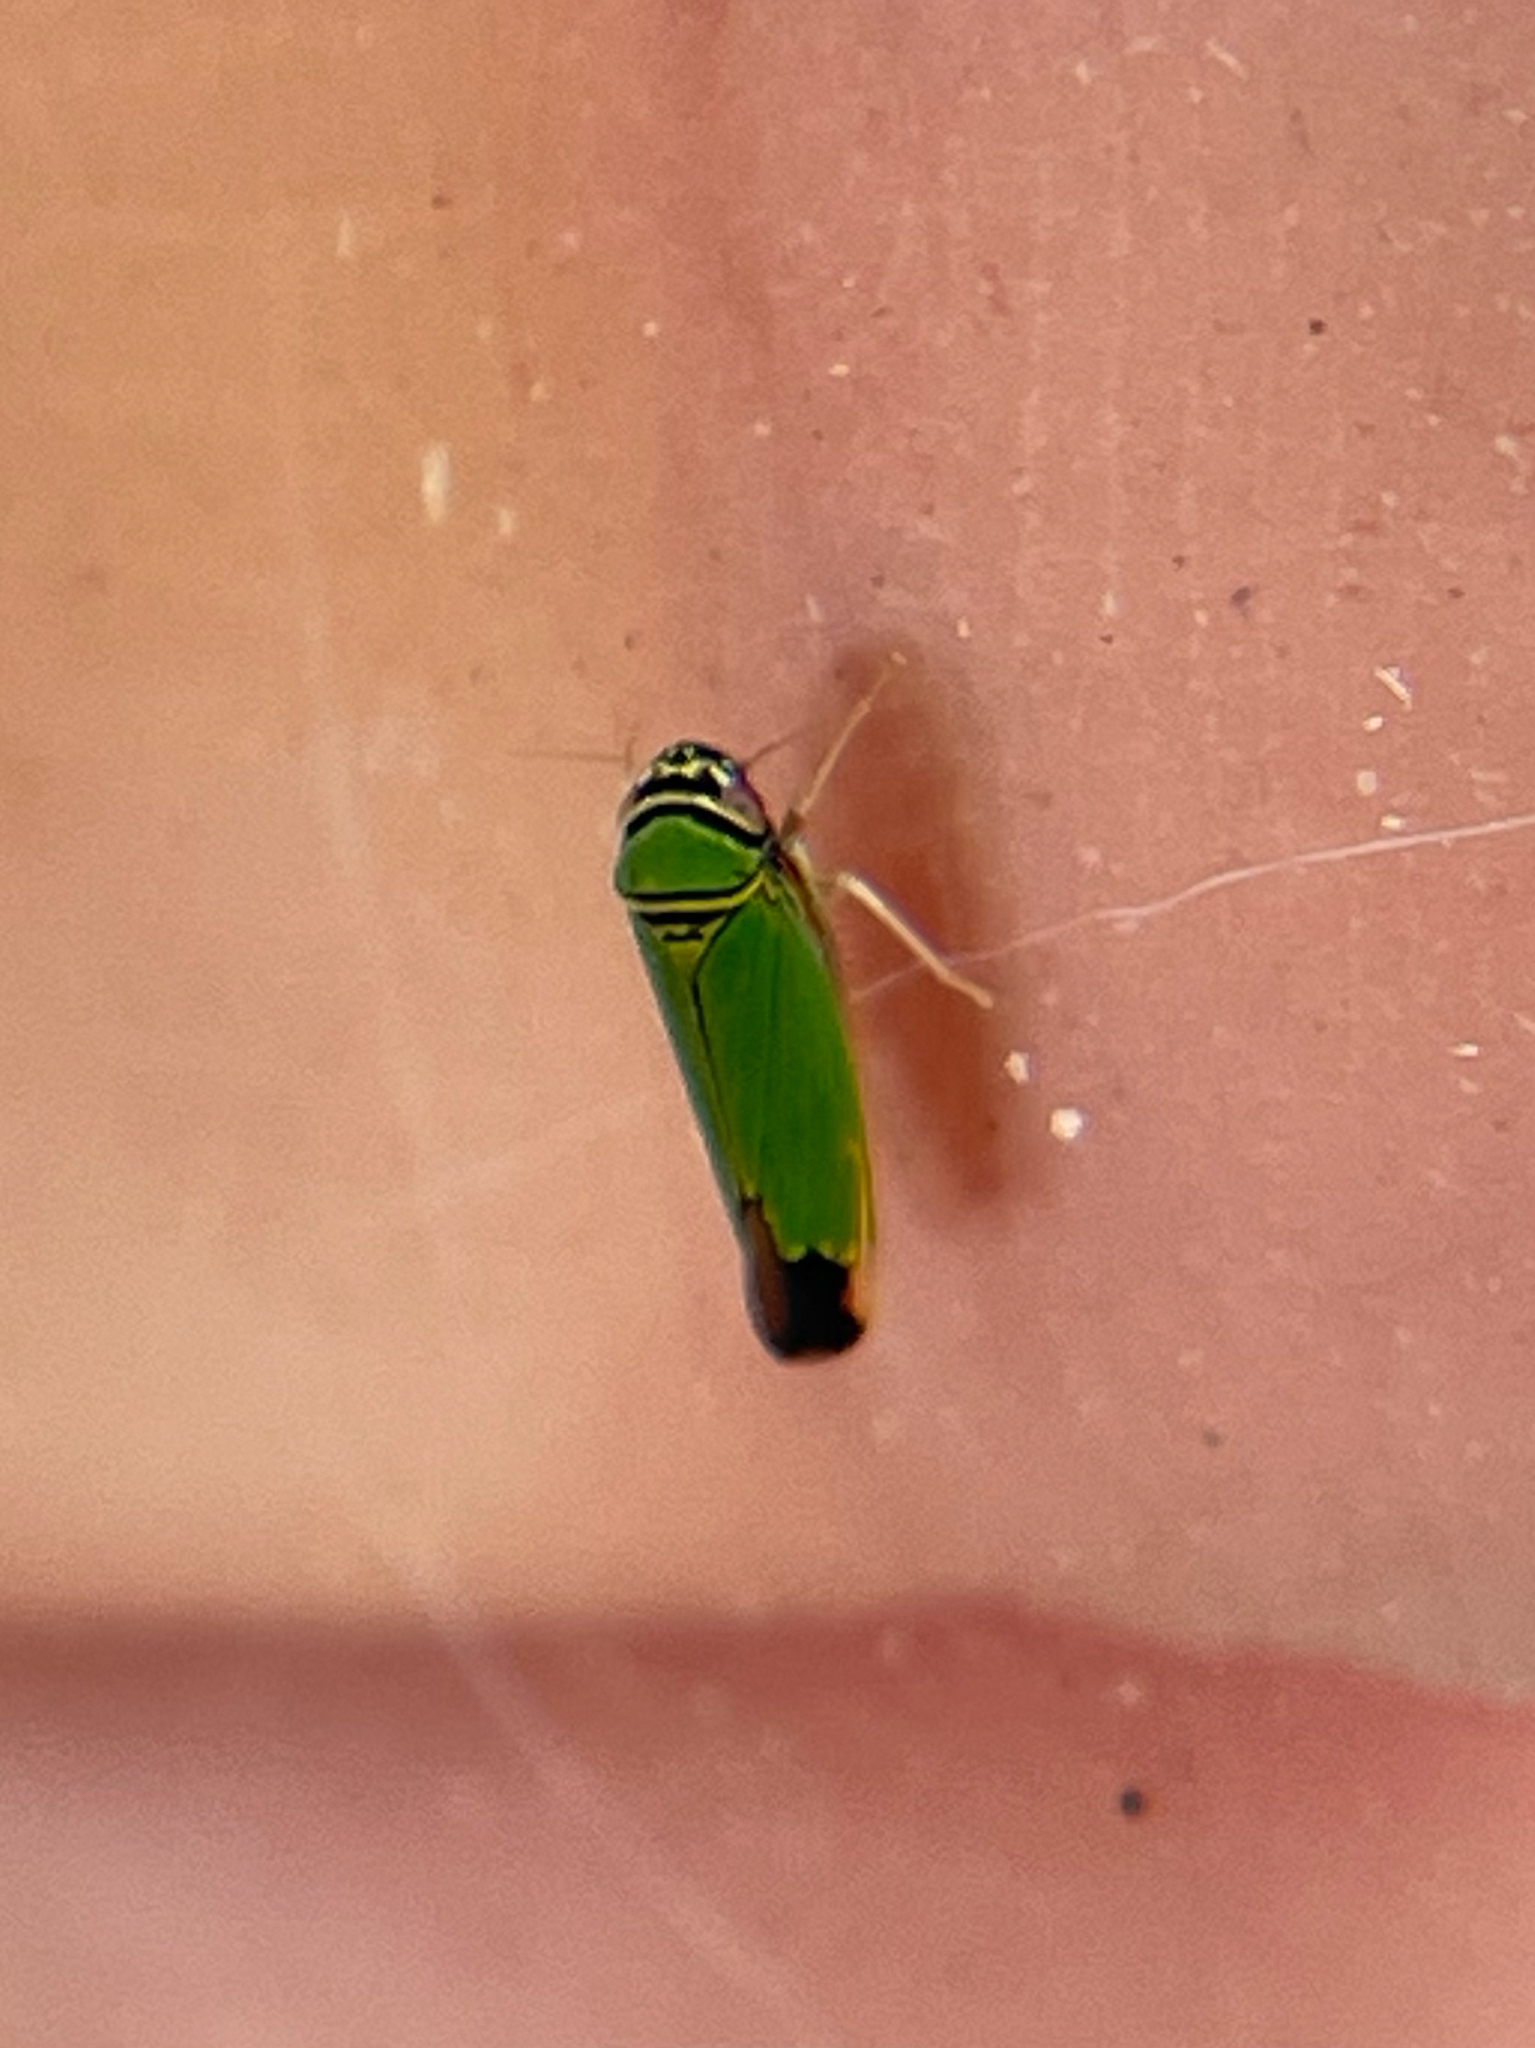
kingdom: Animalia
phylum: Arthropoda
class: Insecta
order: Hemiptera
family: Cicadellidae
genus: Tylozygus
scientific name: Tylozygus geometricus
